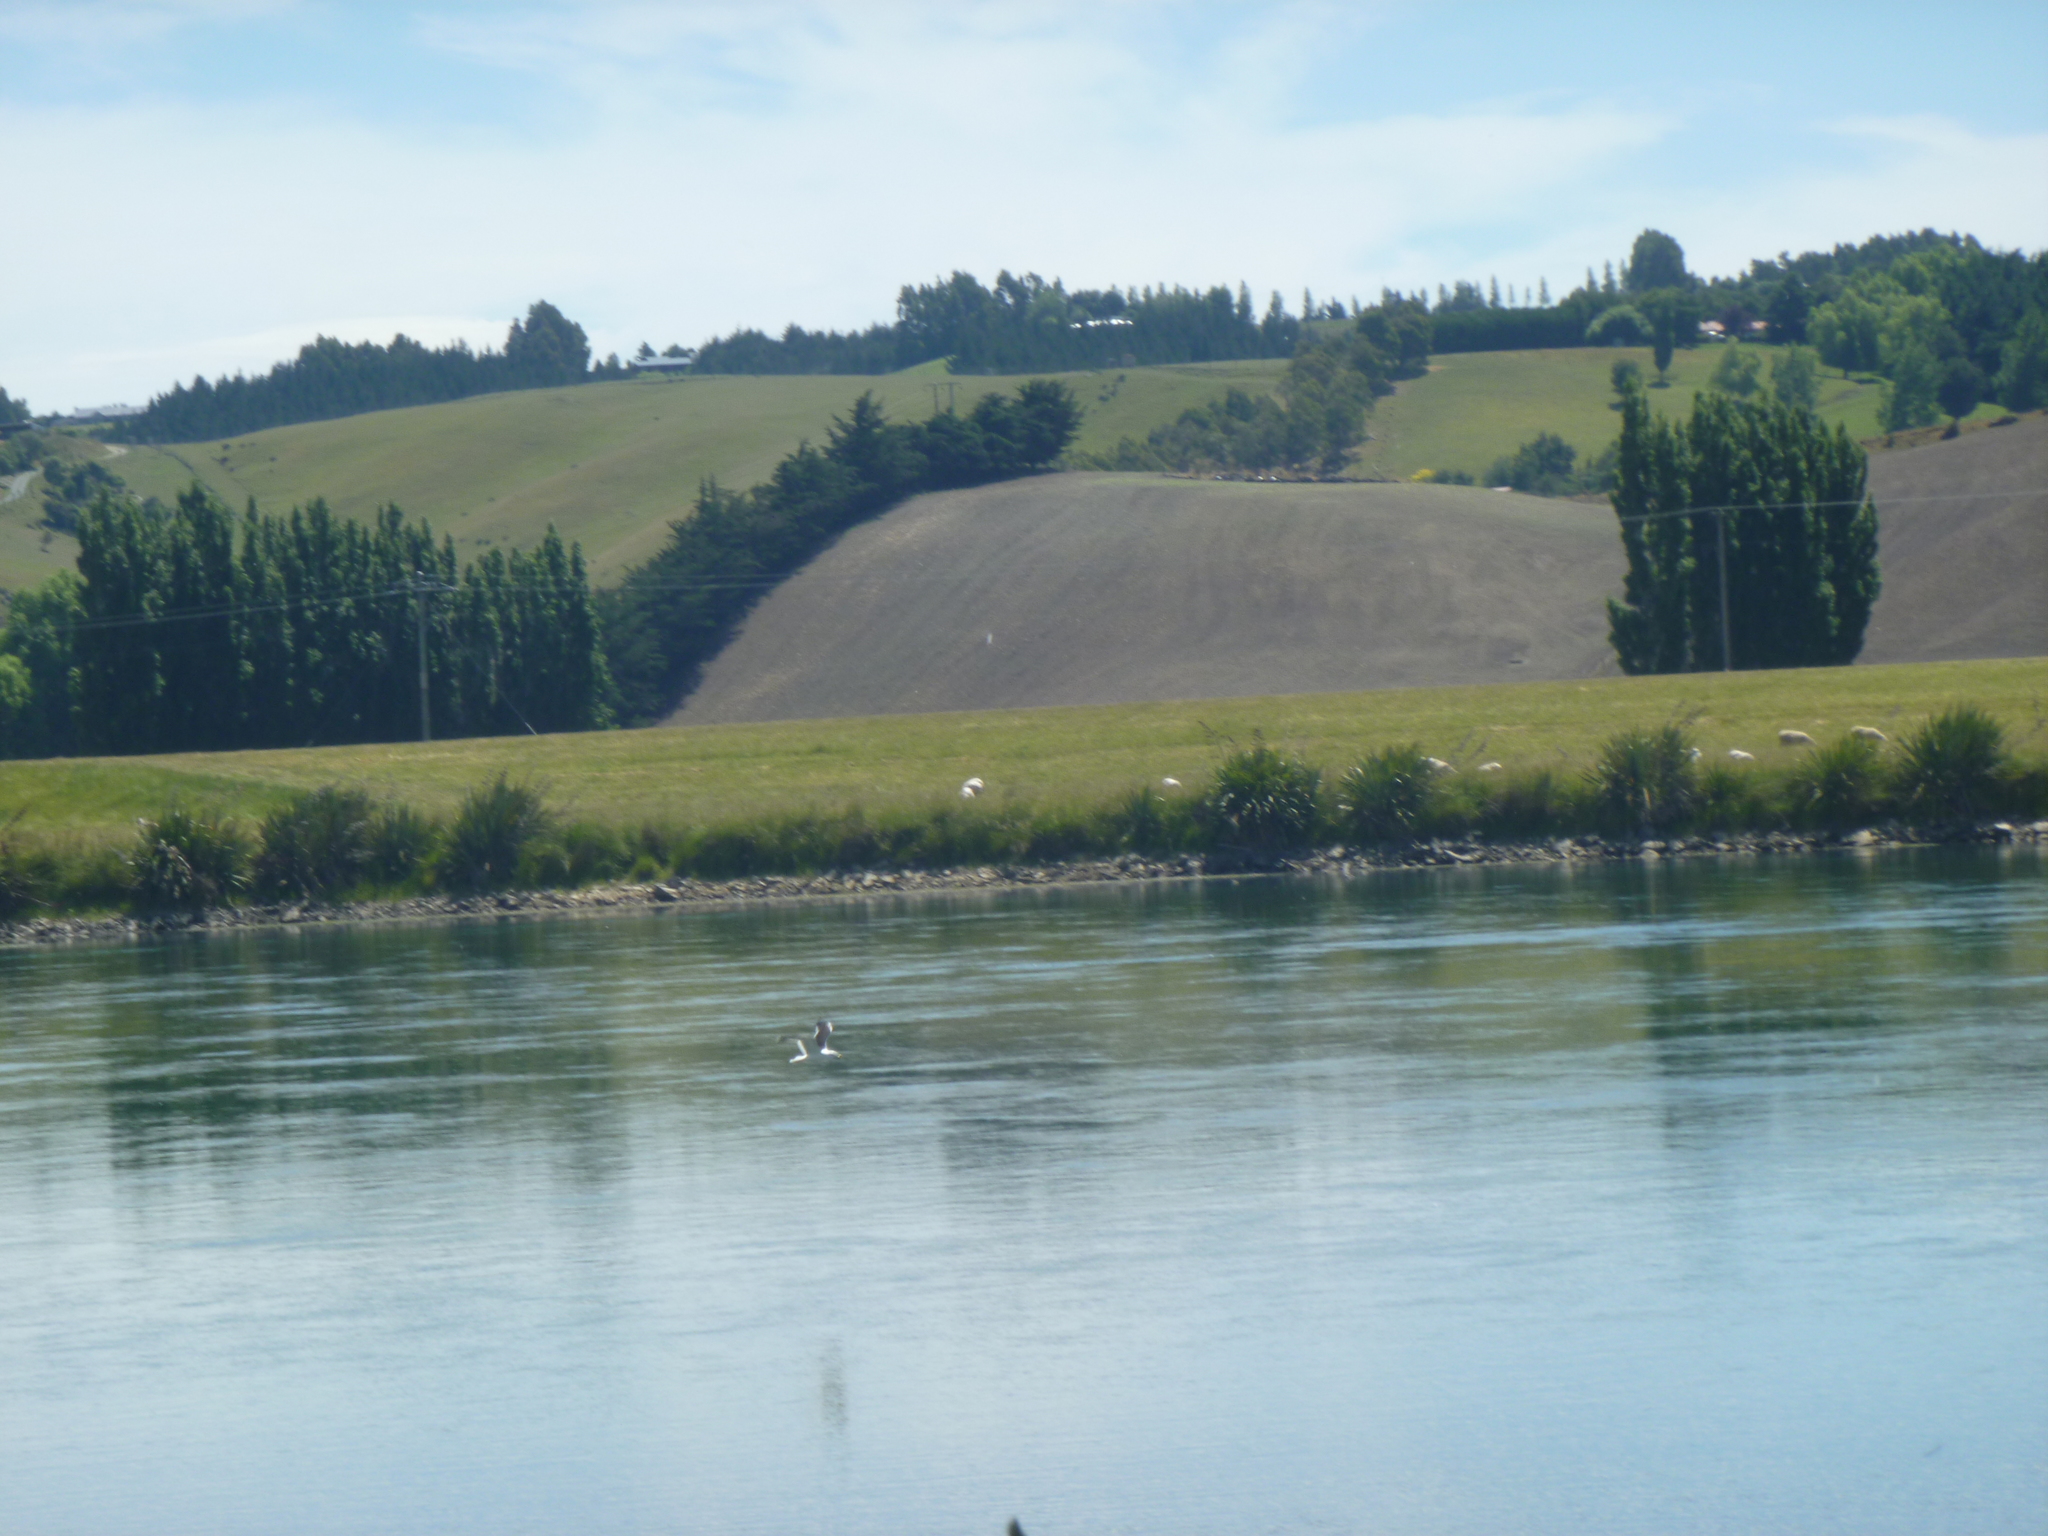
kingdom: Animalia
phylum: Chordata
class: Aves
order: Charadriiformes
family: Laridae
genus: Larus
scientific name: Larus dominicanus
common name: Kelp gull
